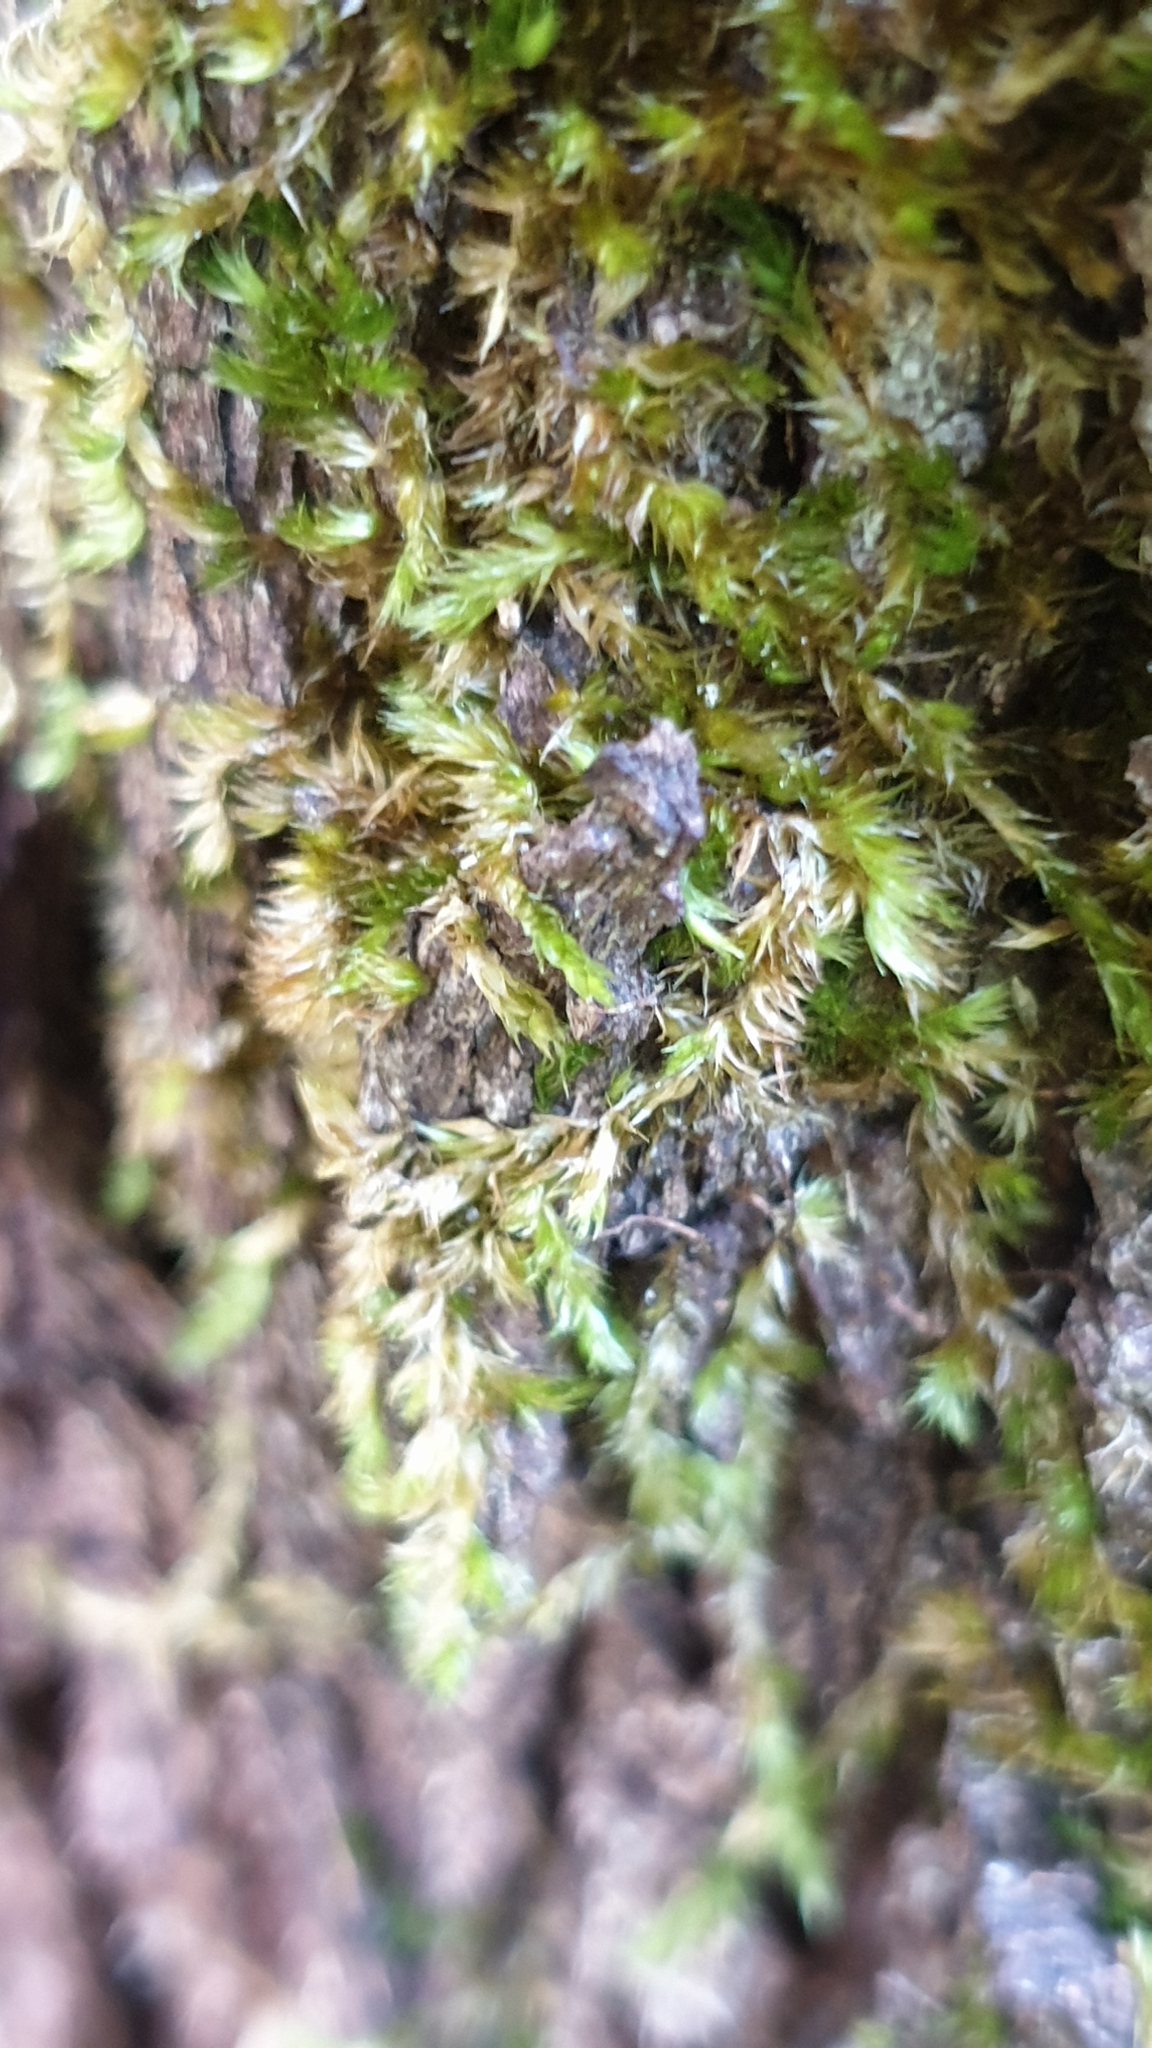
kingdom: Plantae
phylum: Bryophyta
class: Bryopsida
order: Hypnales
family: Sematophyllaceae
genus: Sematophyllum
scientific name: Sematophyllum homomallum
